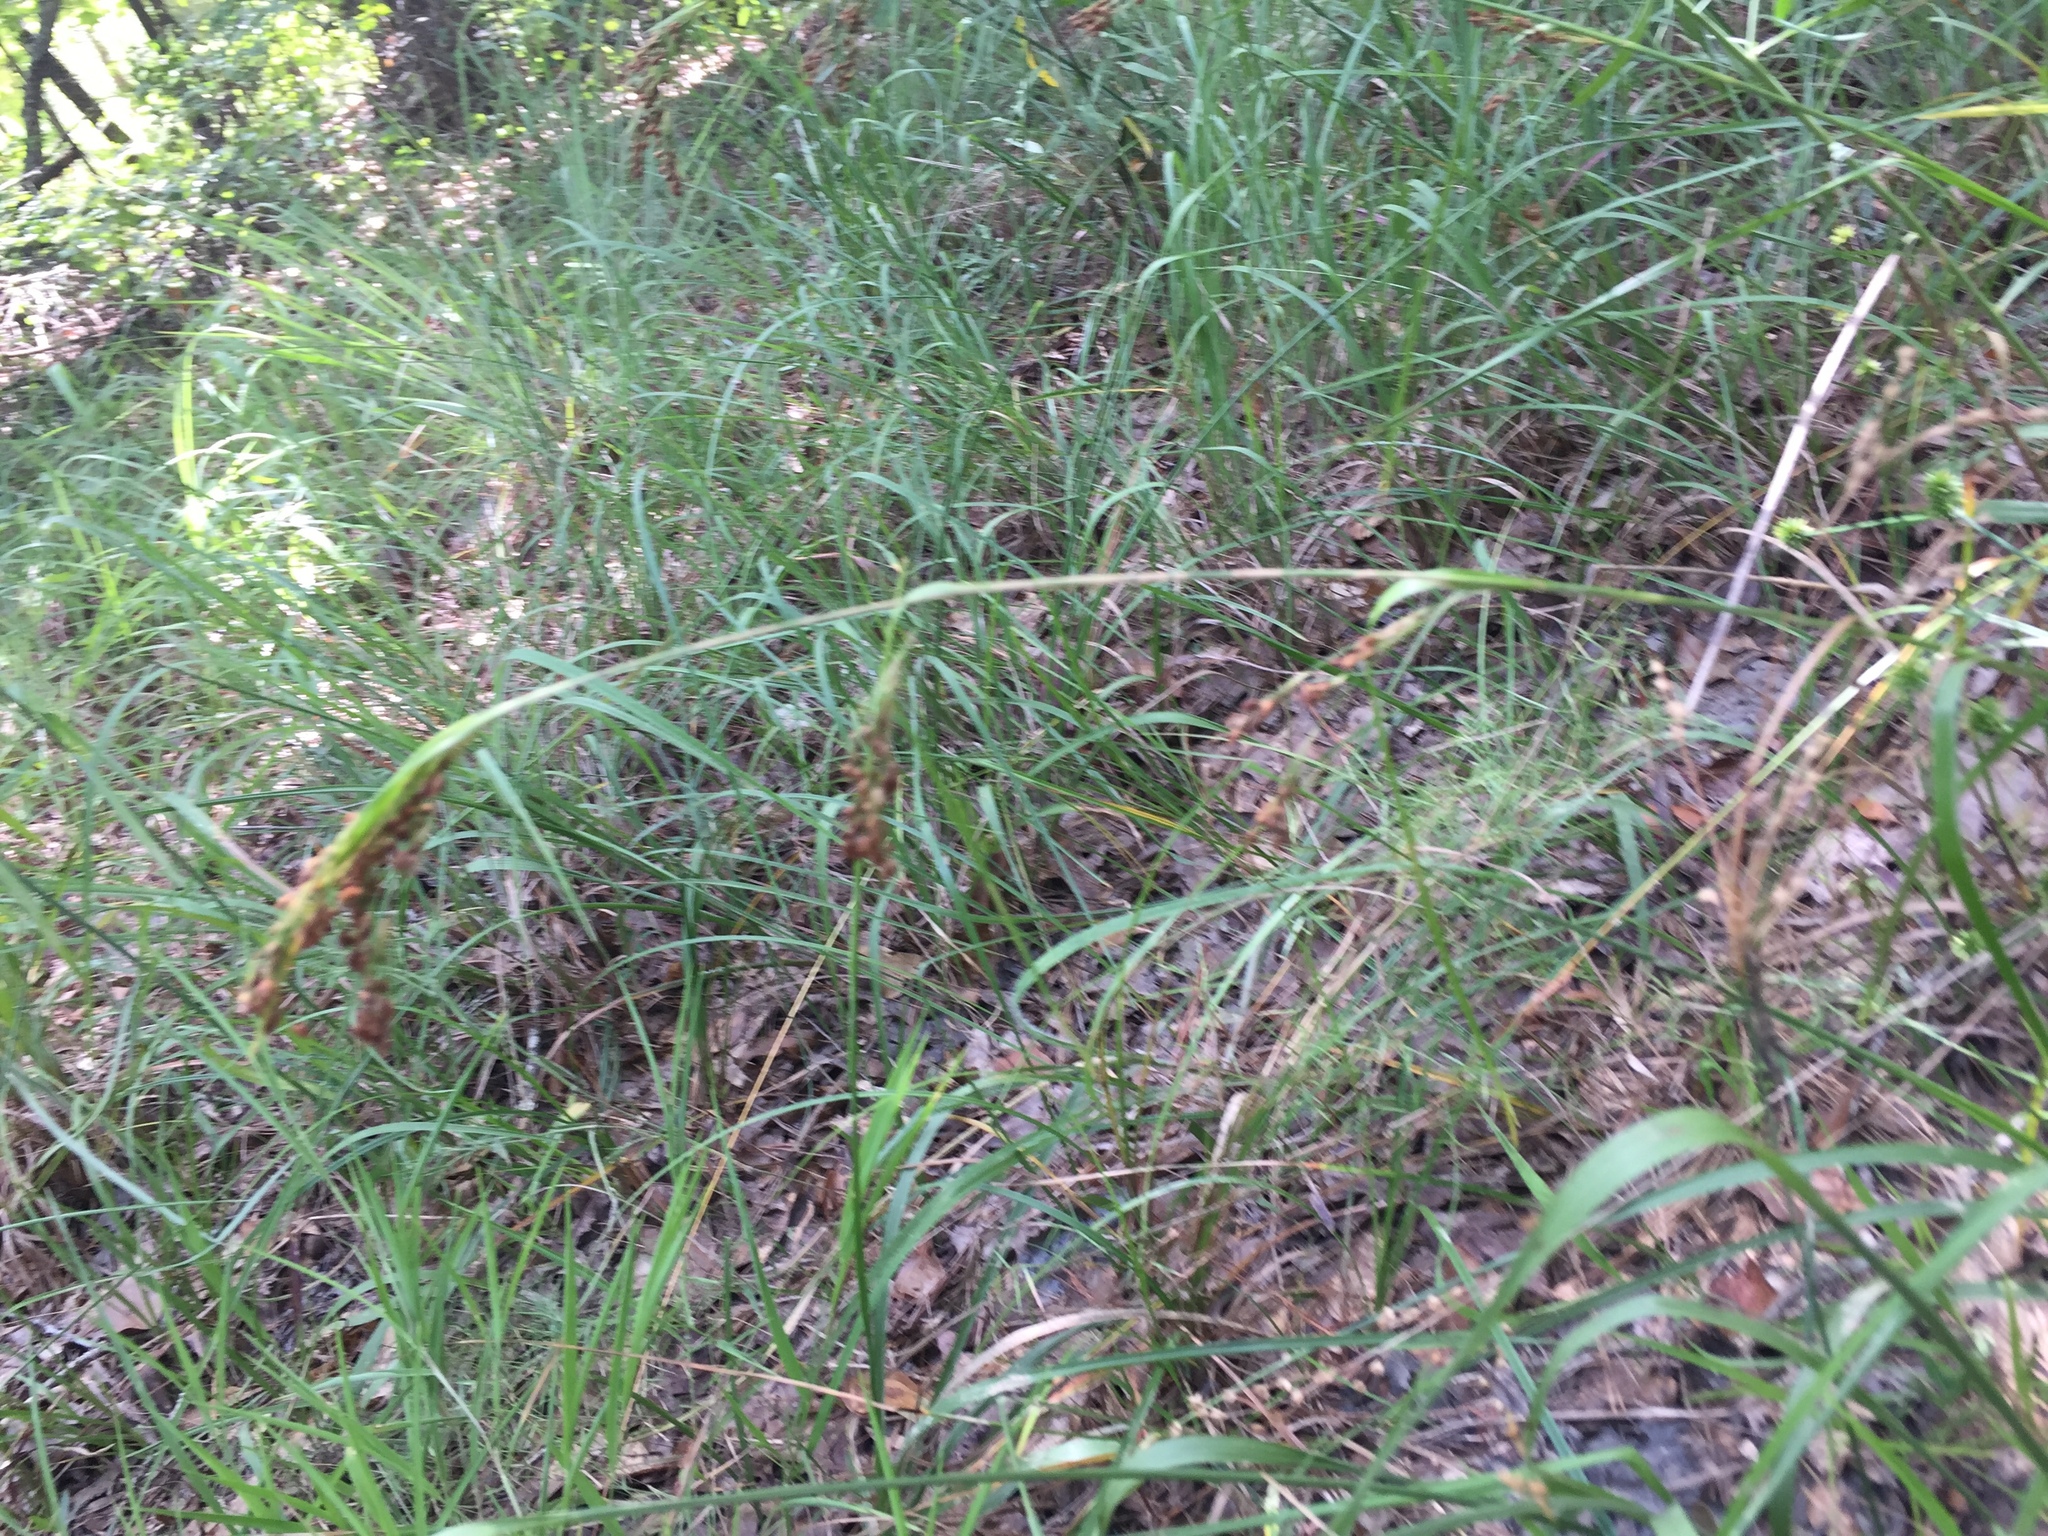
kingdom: Plantae
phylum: Tracheophyta
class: Liliopsida
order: Poales
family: Cyperaceae
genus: Rhynchospora
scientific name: Rhynchospora caduca
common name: Anglestem beaksedge
